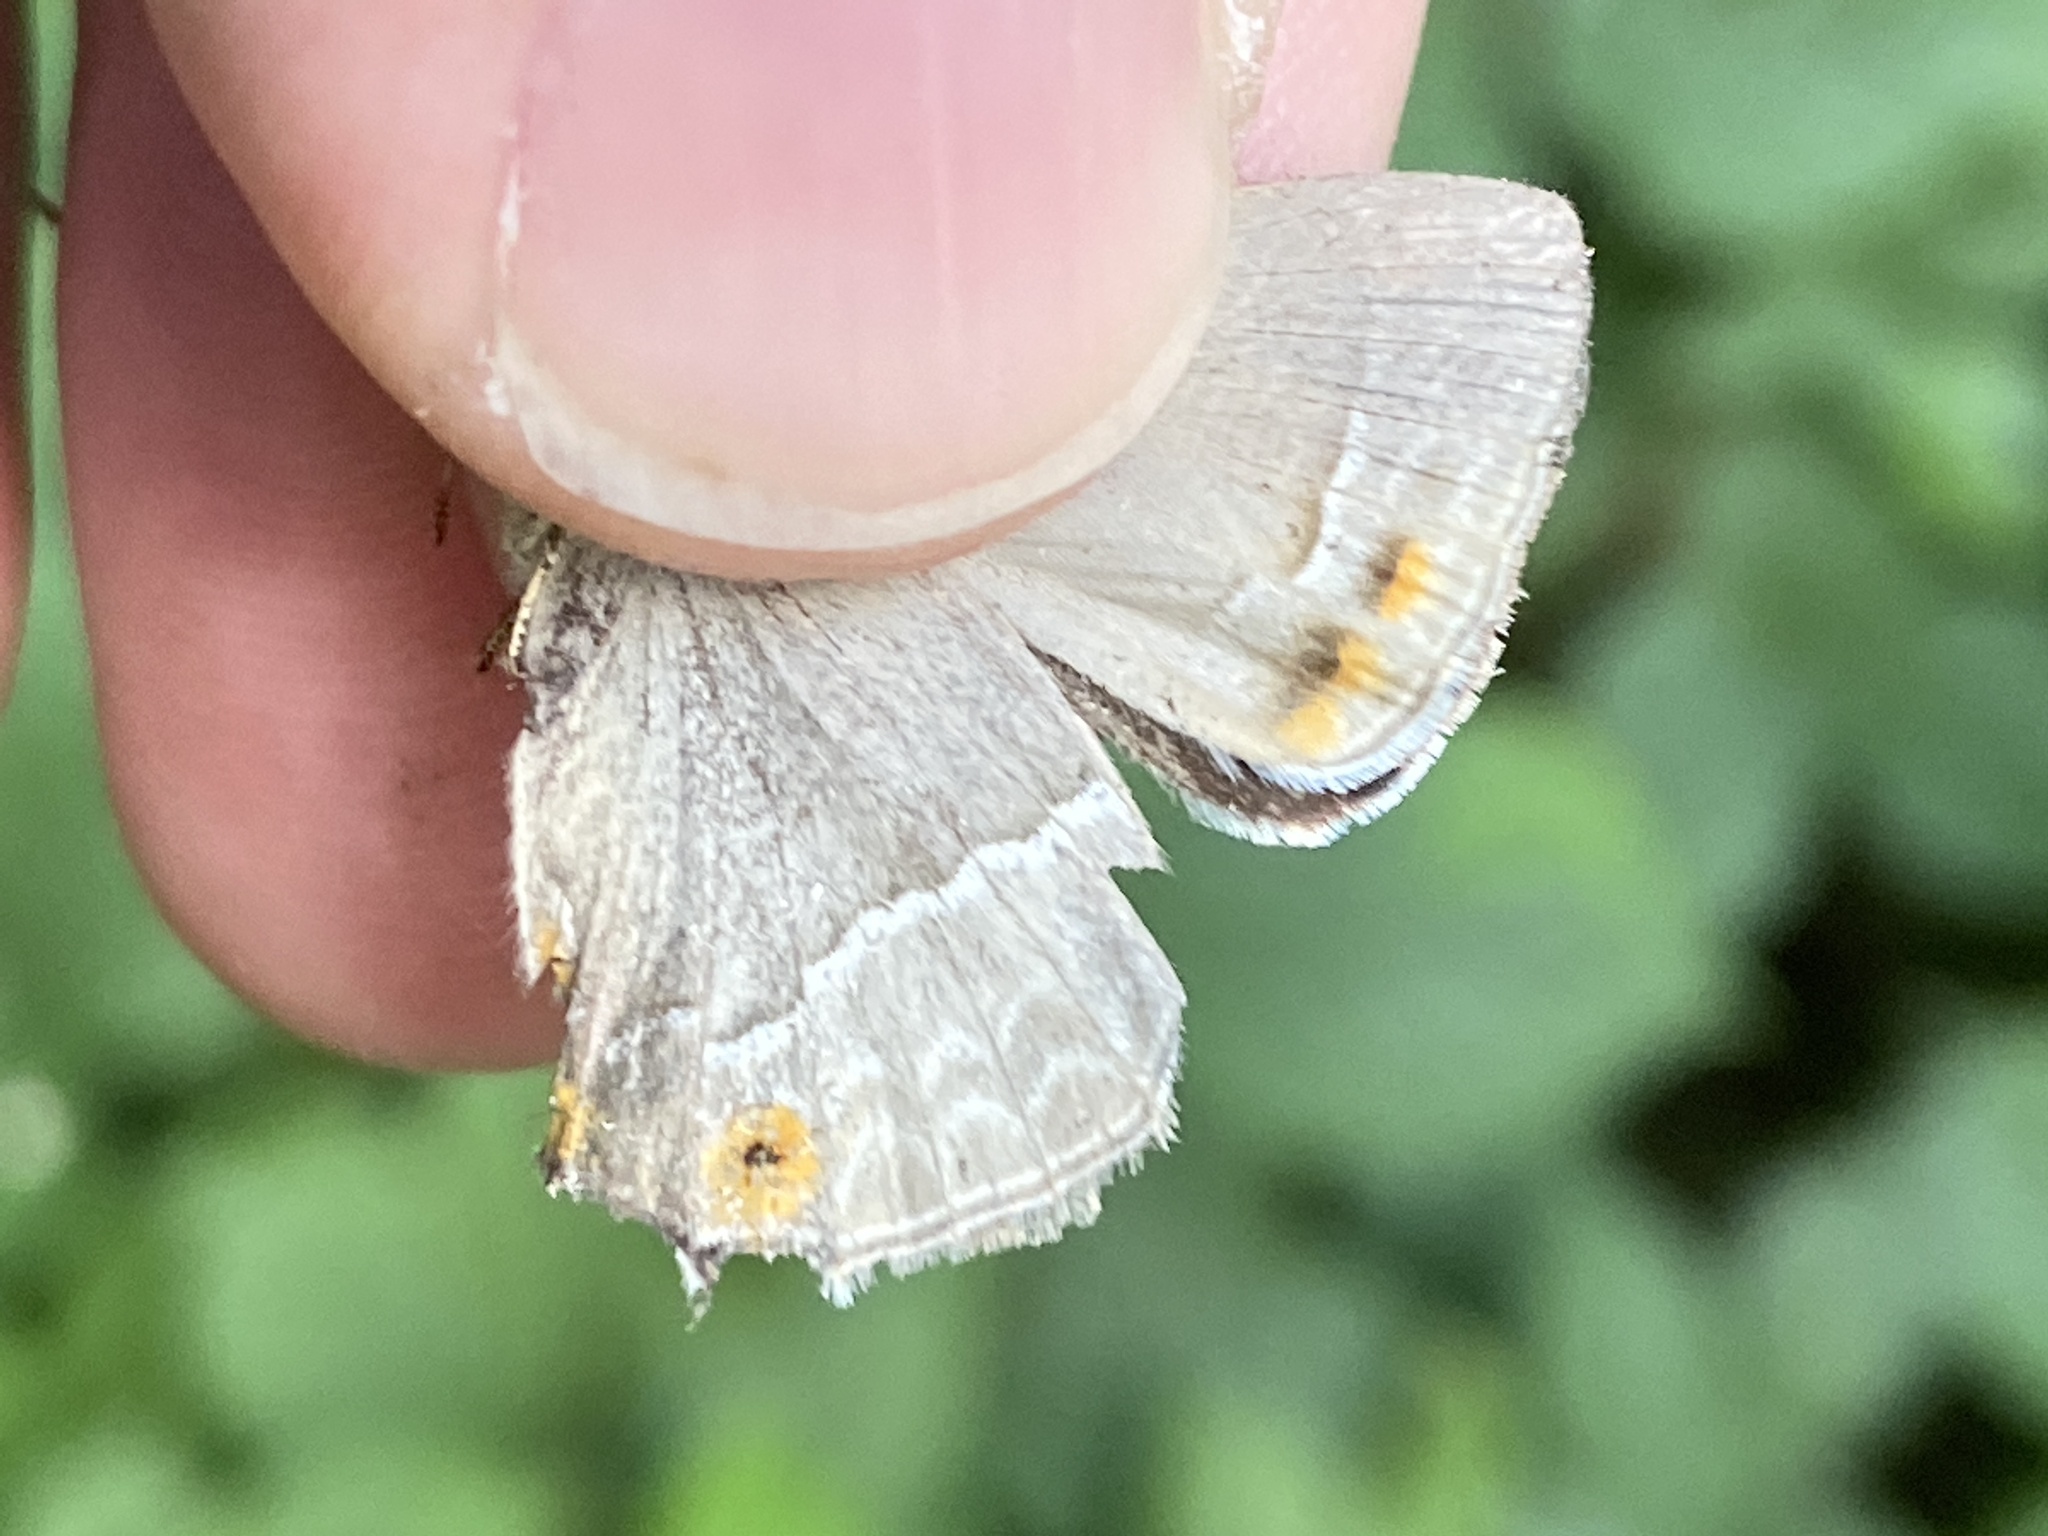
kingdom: Animalia
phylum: Arthropoda
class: Insecta
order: Lepidoptera
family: Lycaenidae
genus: Quercusia
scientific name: Quercusia quercus
